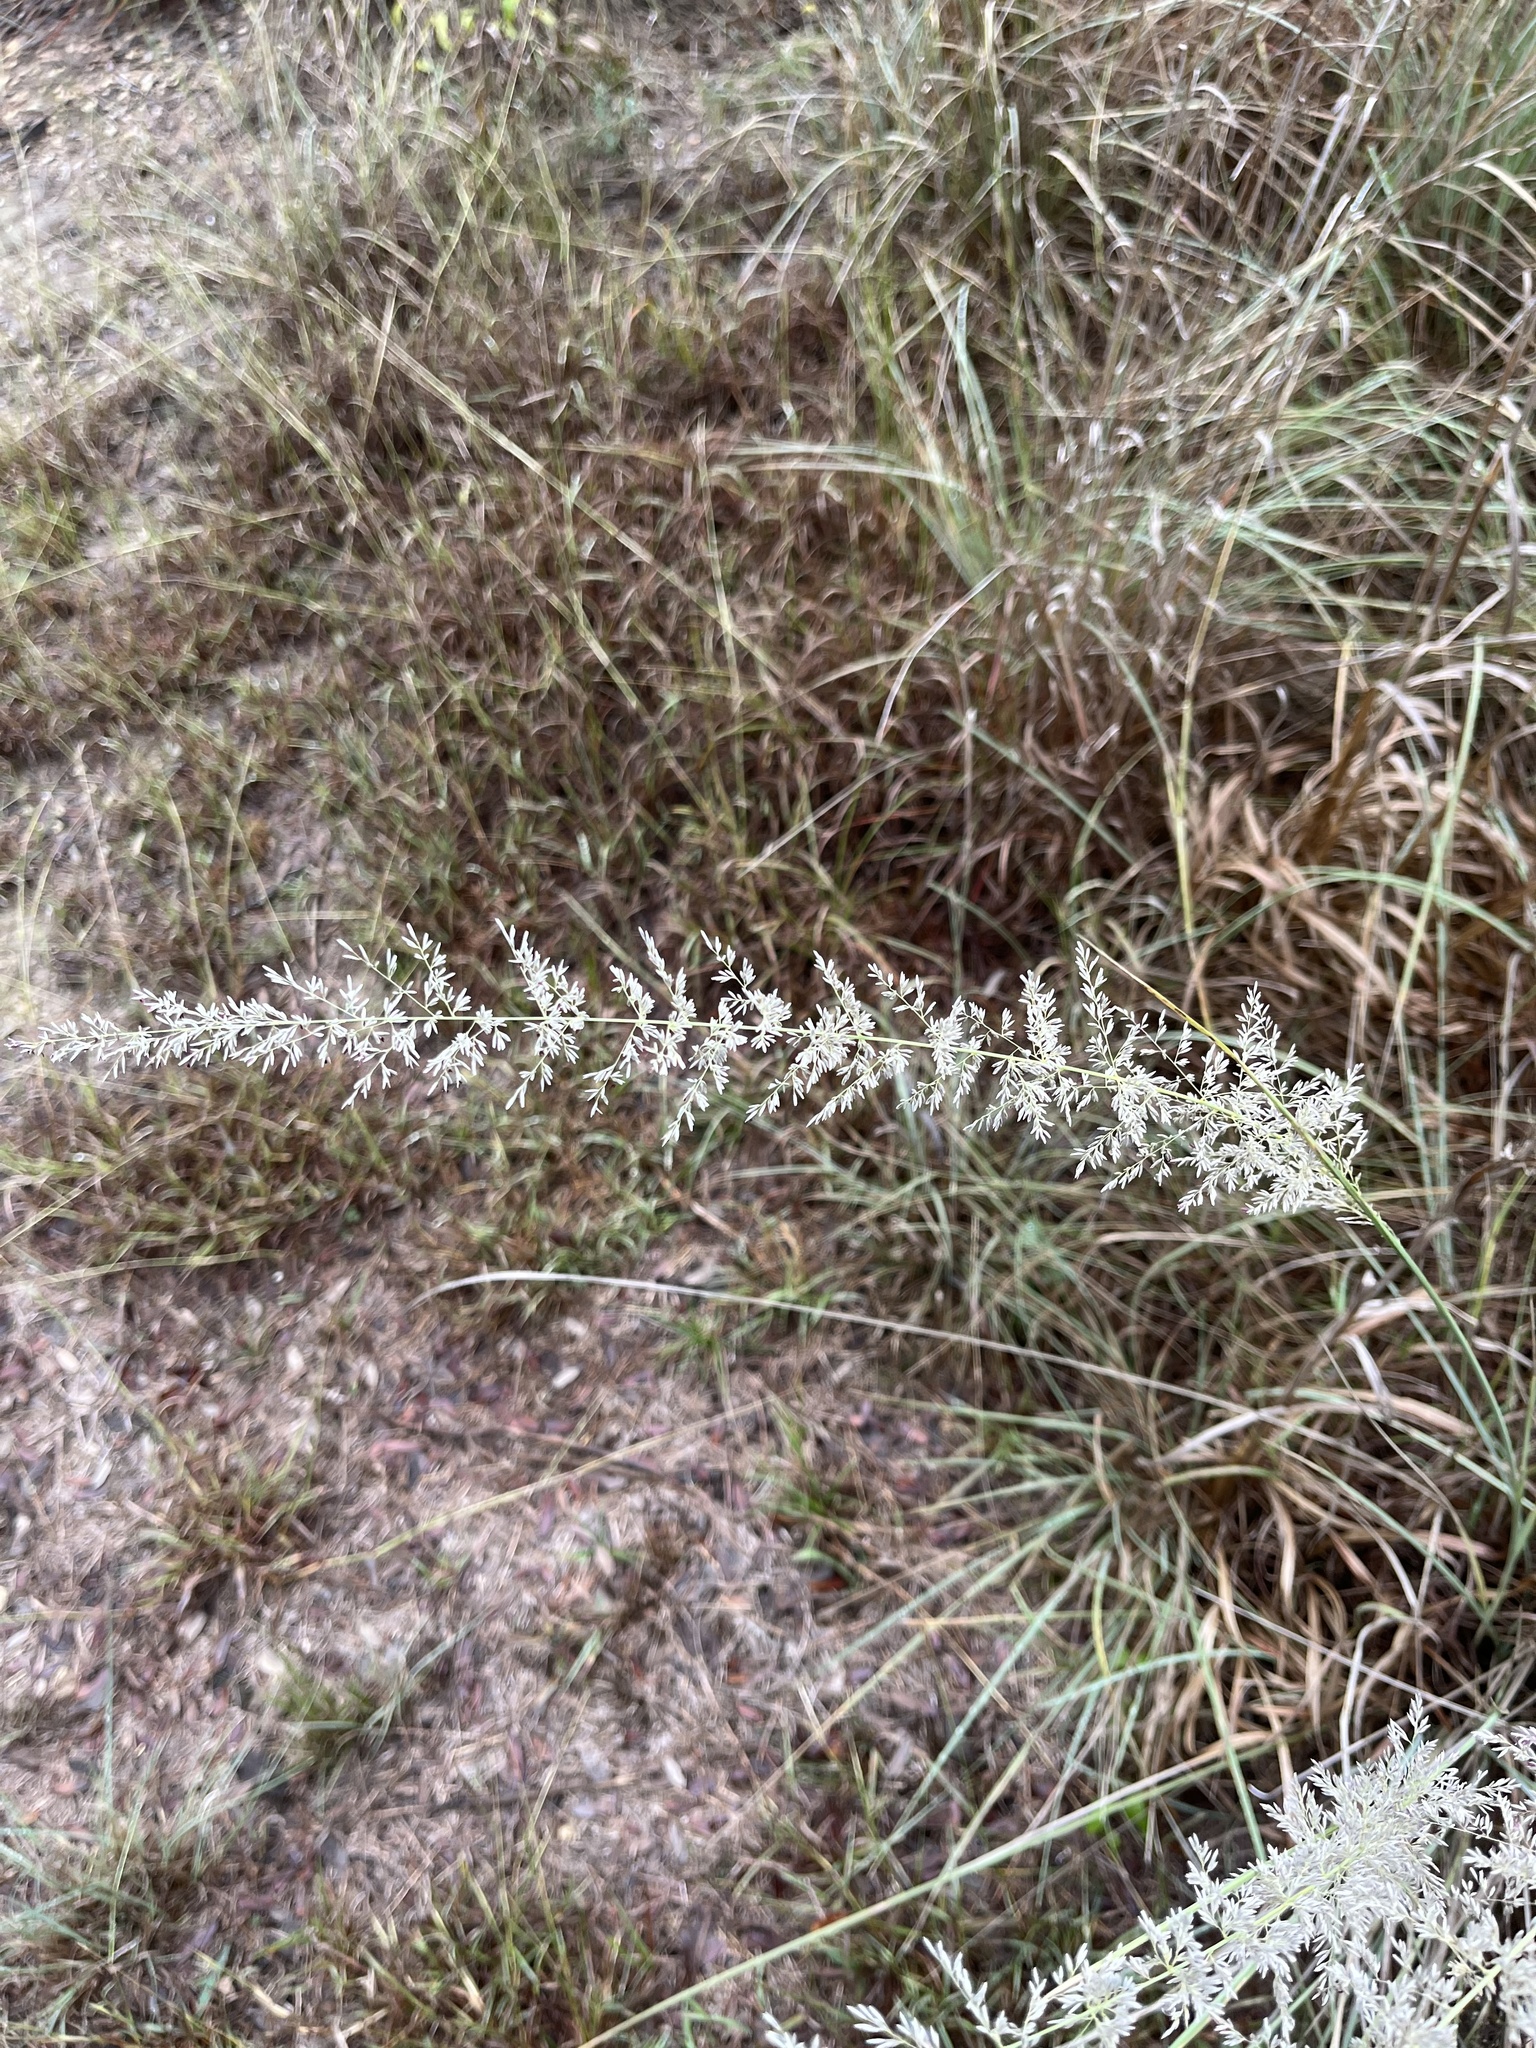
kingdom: Plantae
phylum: Tracheophyta
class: Liliopsida
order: Poales
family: Poaceae
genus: Muhlenbergia
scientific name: Muhlenbergia lindheimeri
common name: Lindheimer's muhly
